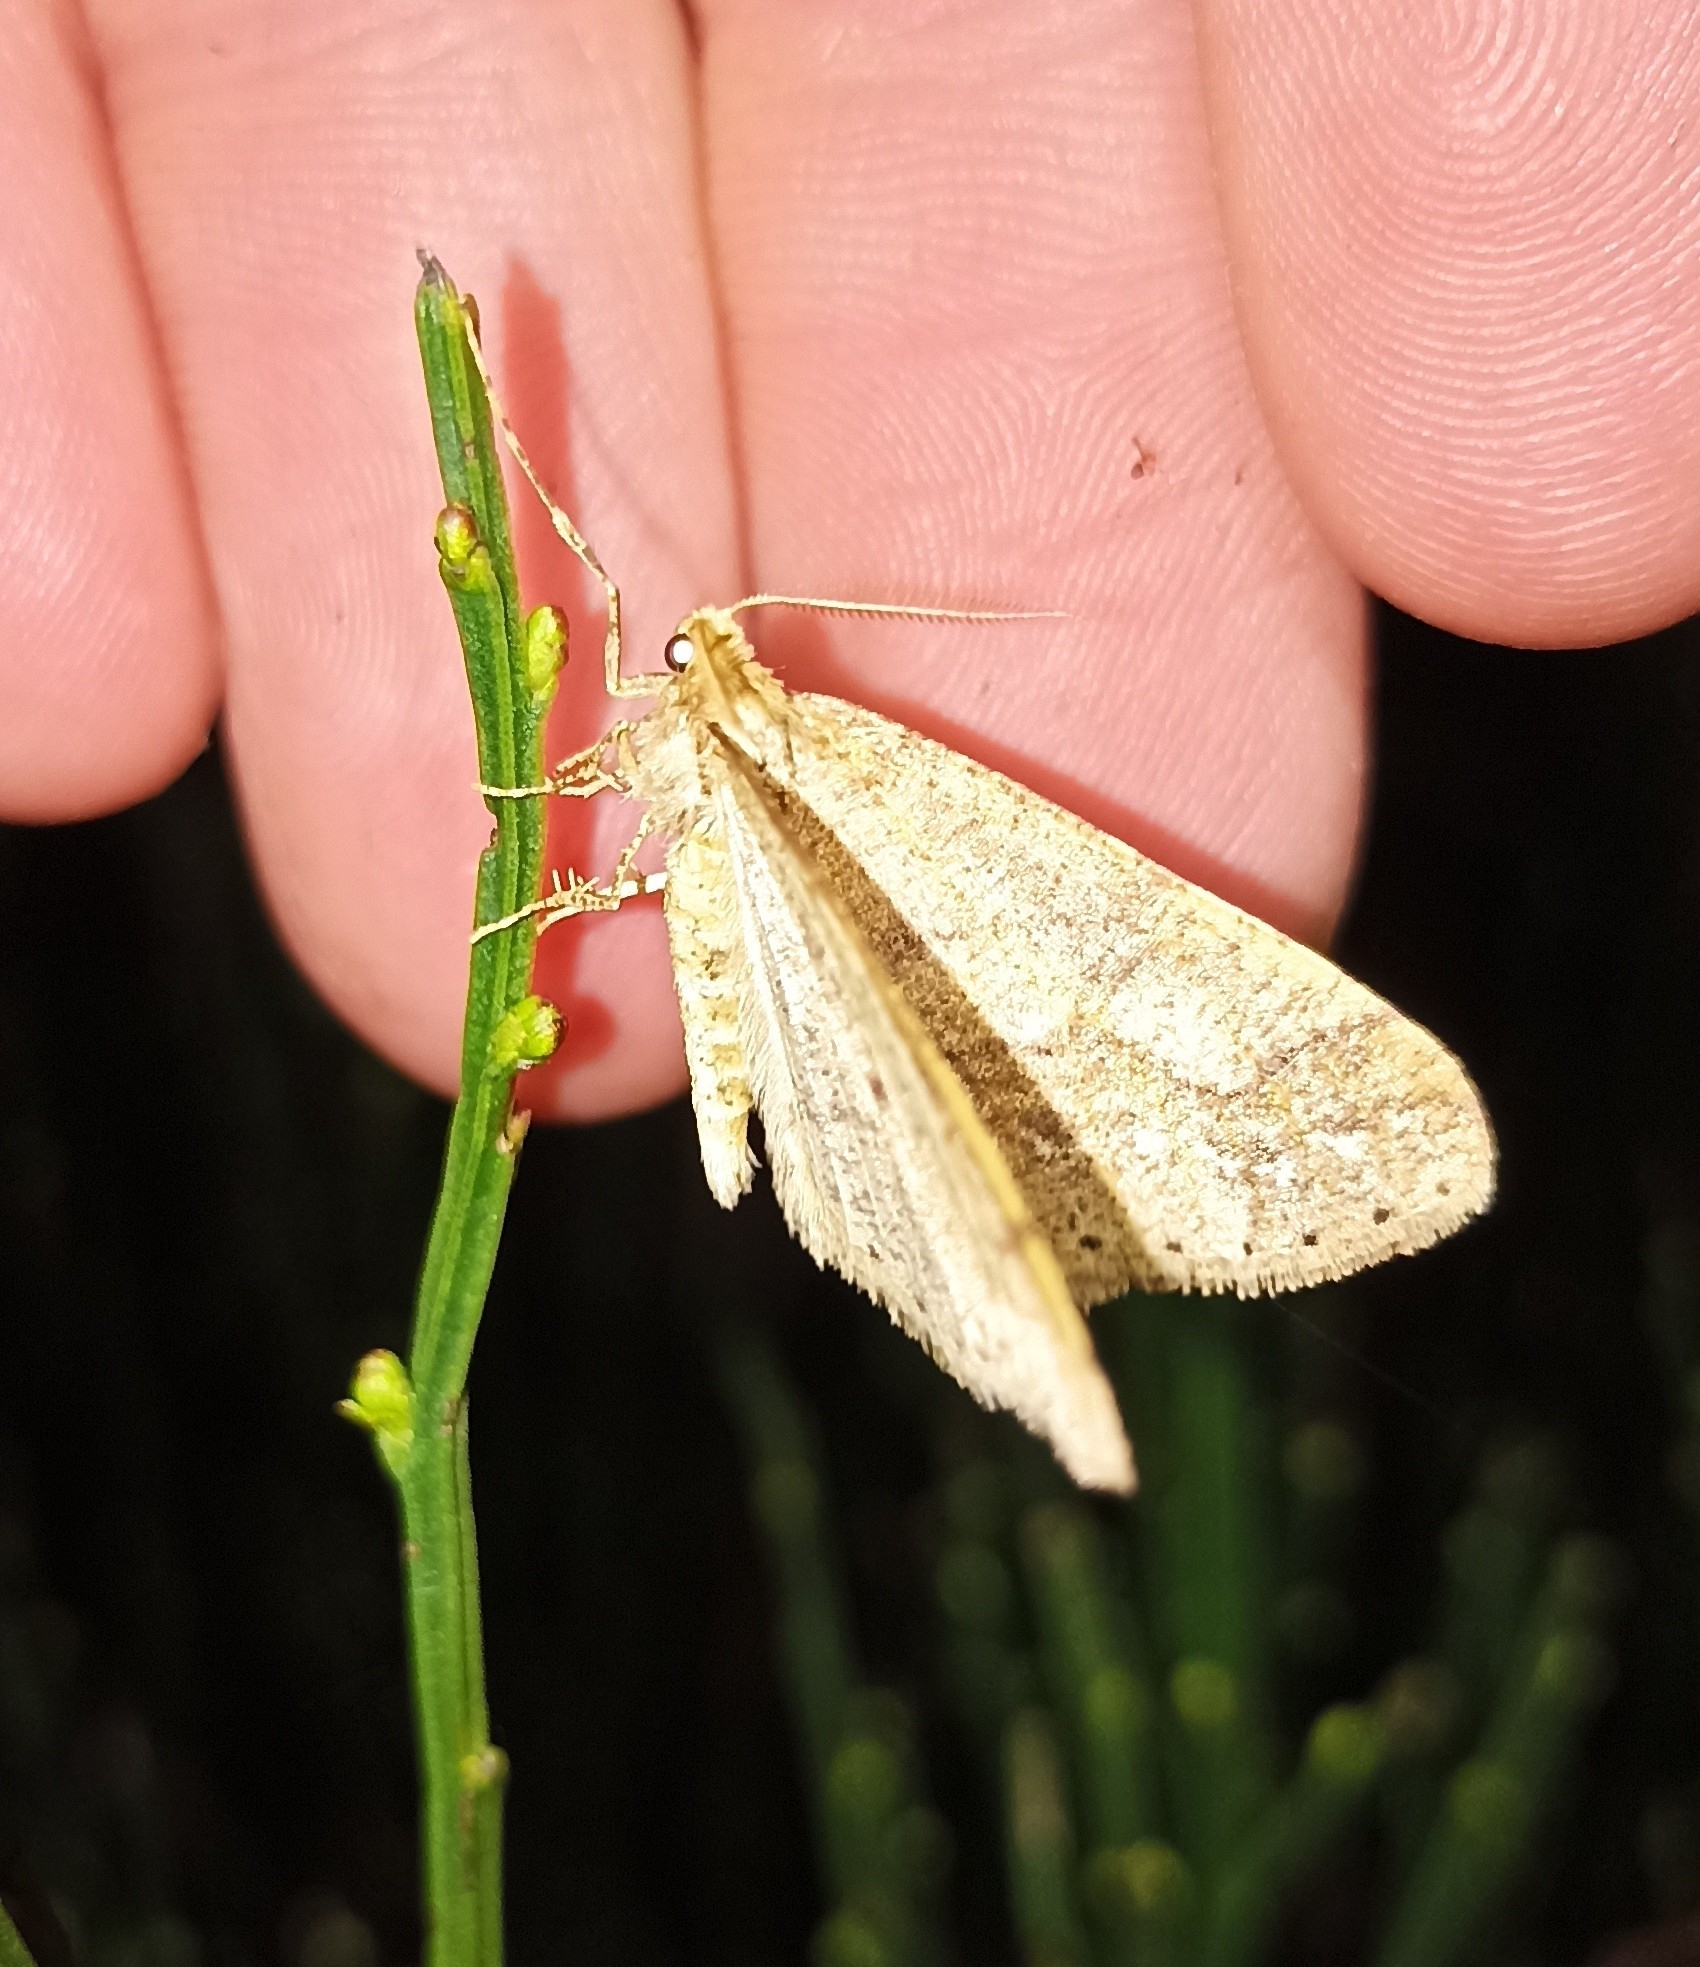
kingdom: Animalia
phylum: Arthropoda
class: Insecta
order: Lepidoptera
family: Geometridae
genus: Agriopis
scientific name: Agriopis marginaria
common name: Dotted border
